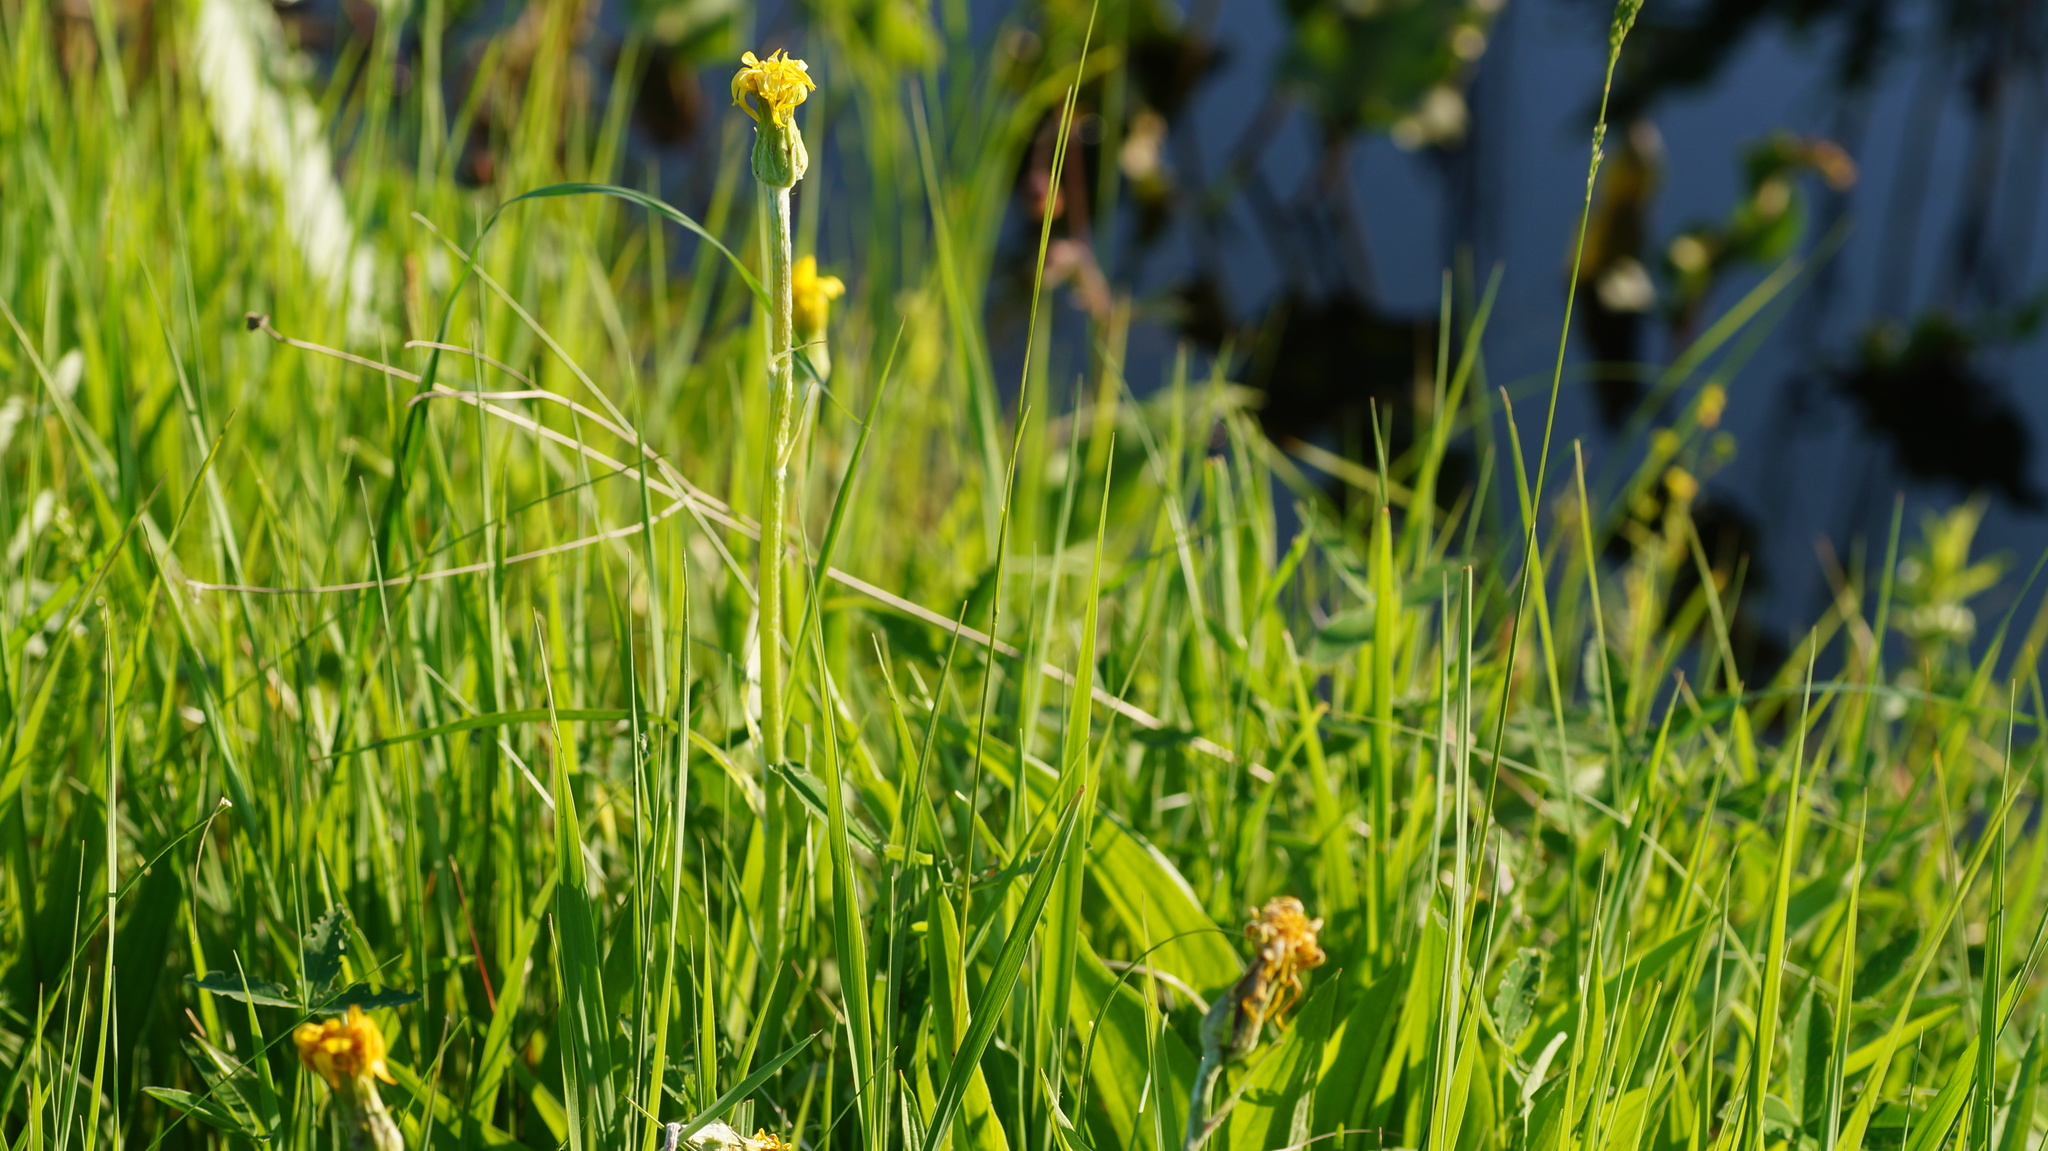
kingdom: Plantae
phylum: Tracheophyta
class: Magnoliopsida
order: Asterales
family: Asteraceae
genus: Scorzonera
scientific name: Scorzonera humilis
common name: Viper's-grass
